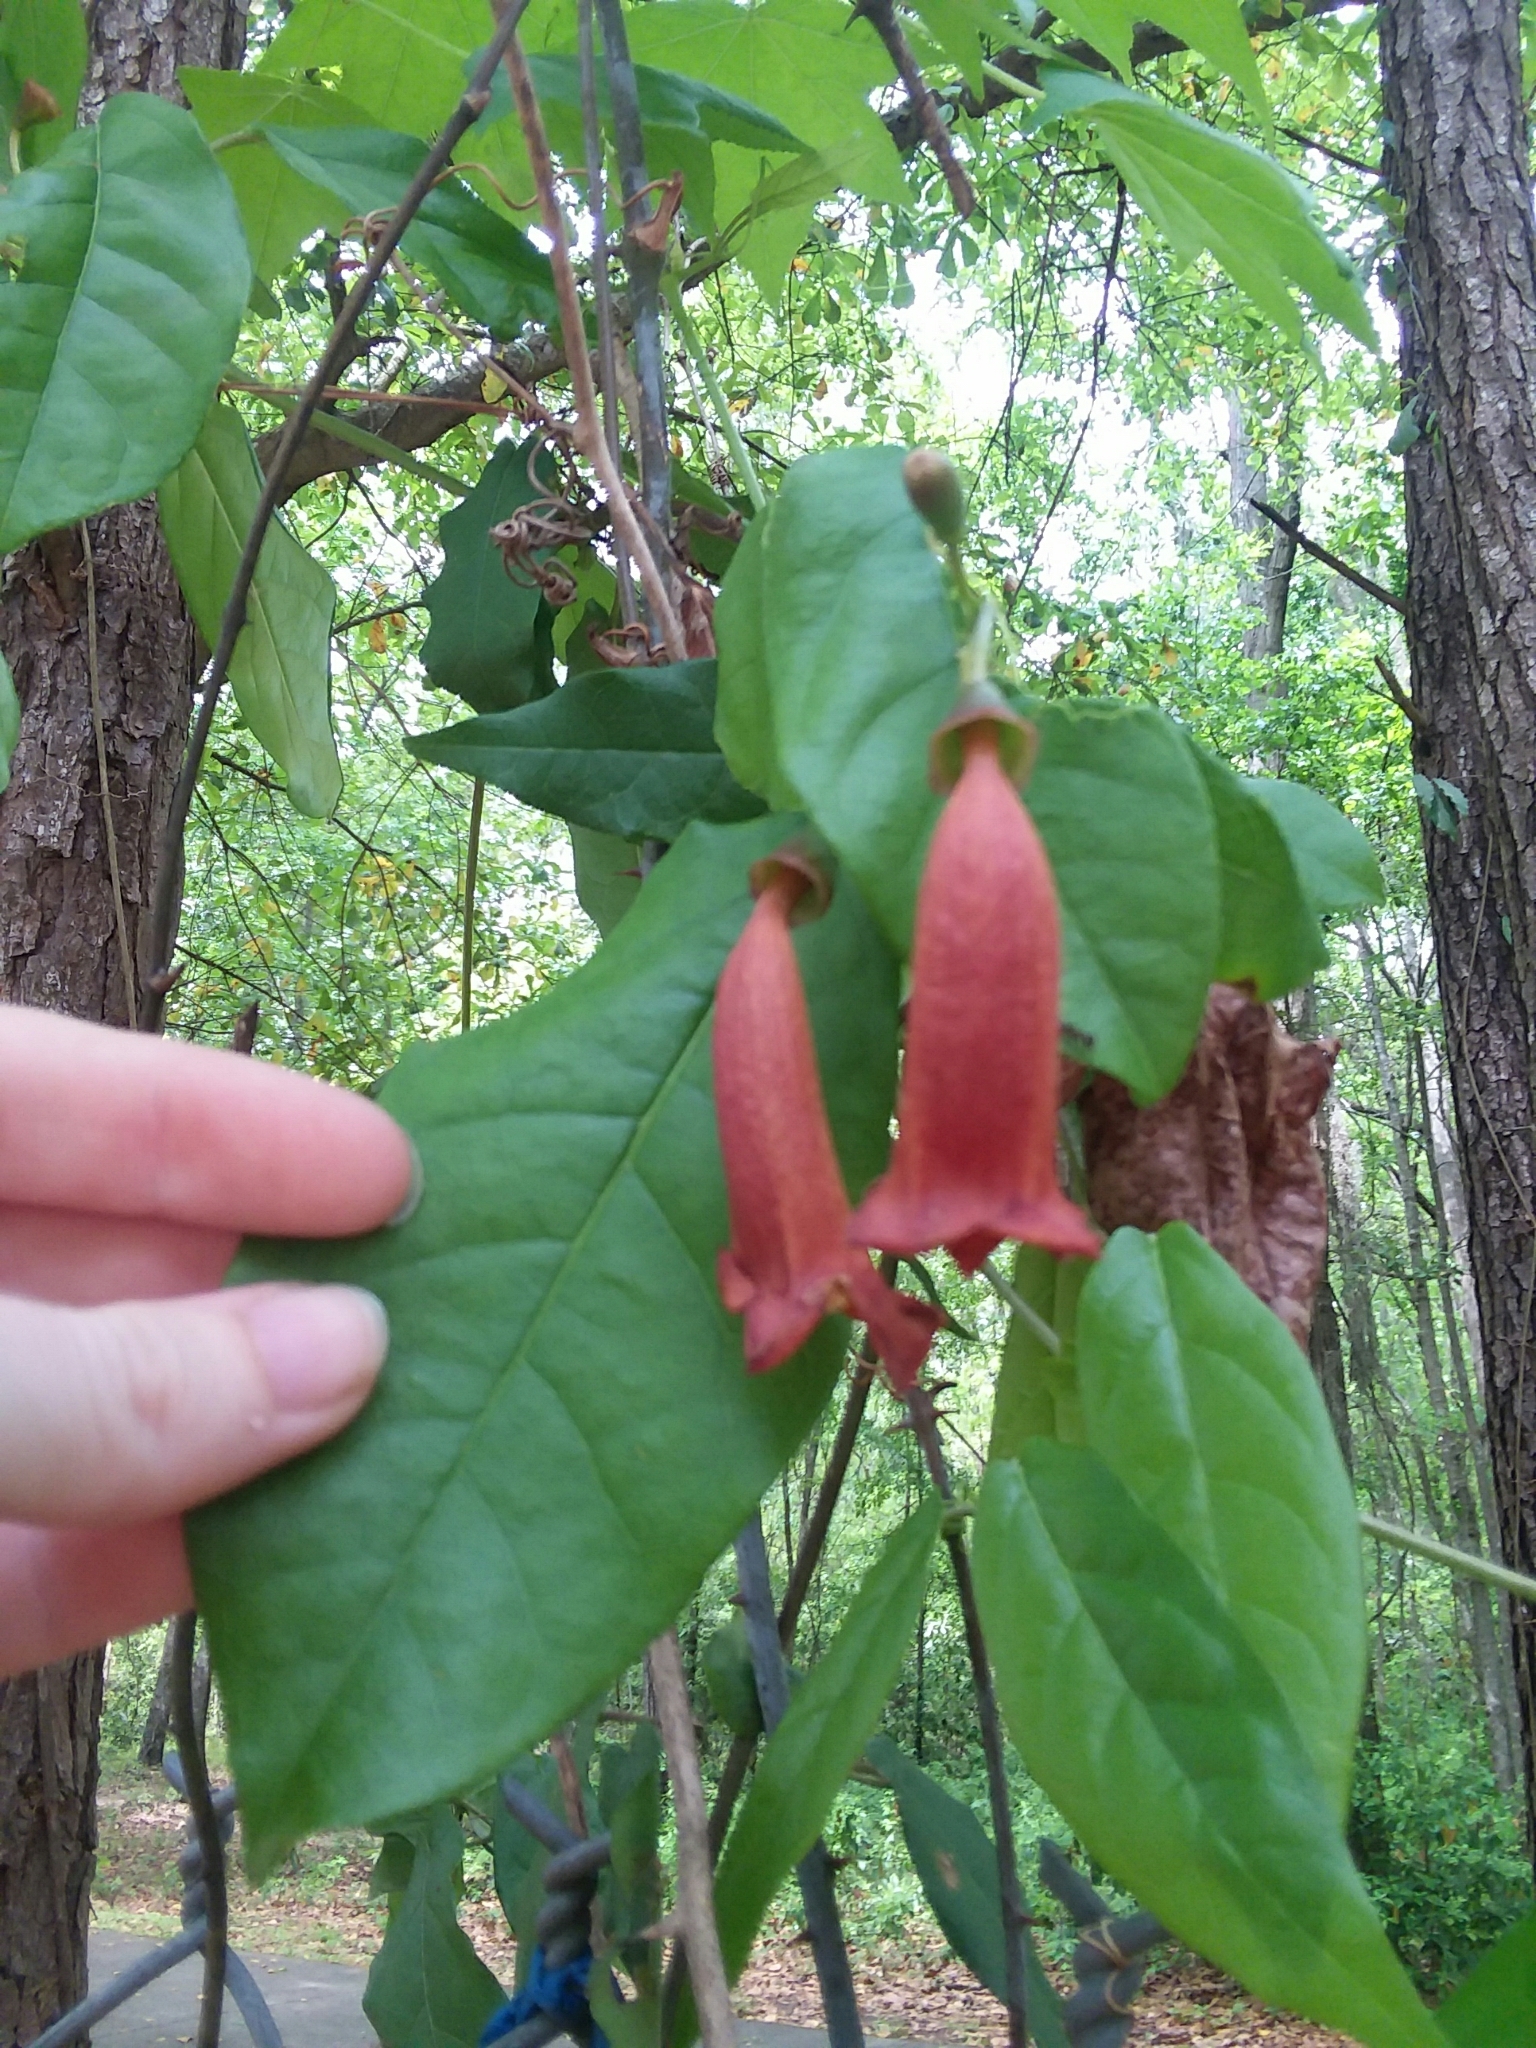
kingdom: Plantae
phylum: Tracheophyta
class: Magnoliopsida
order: Lamiales
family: Bignoniaceae
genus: Bignonia
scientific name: Bignonia capreolata
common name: Crossvine
